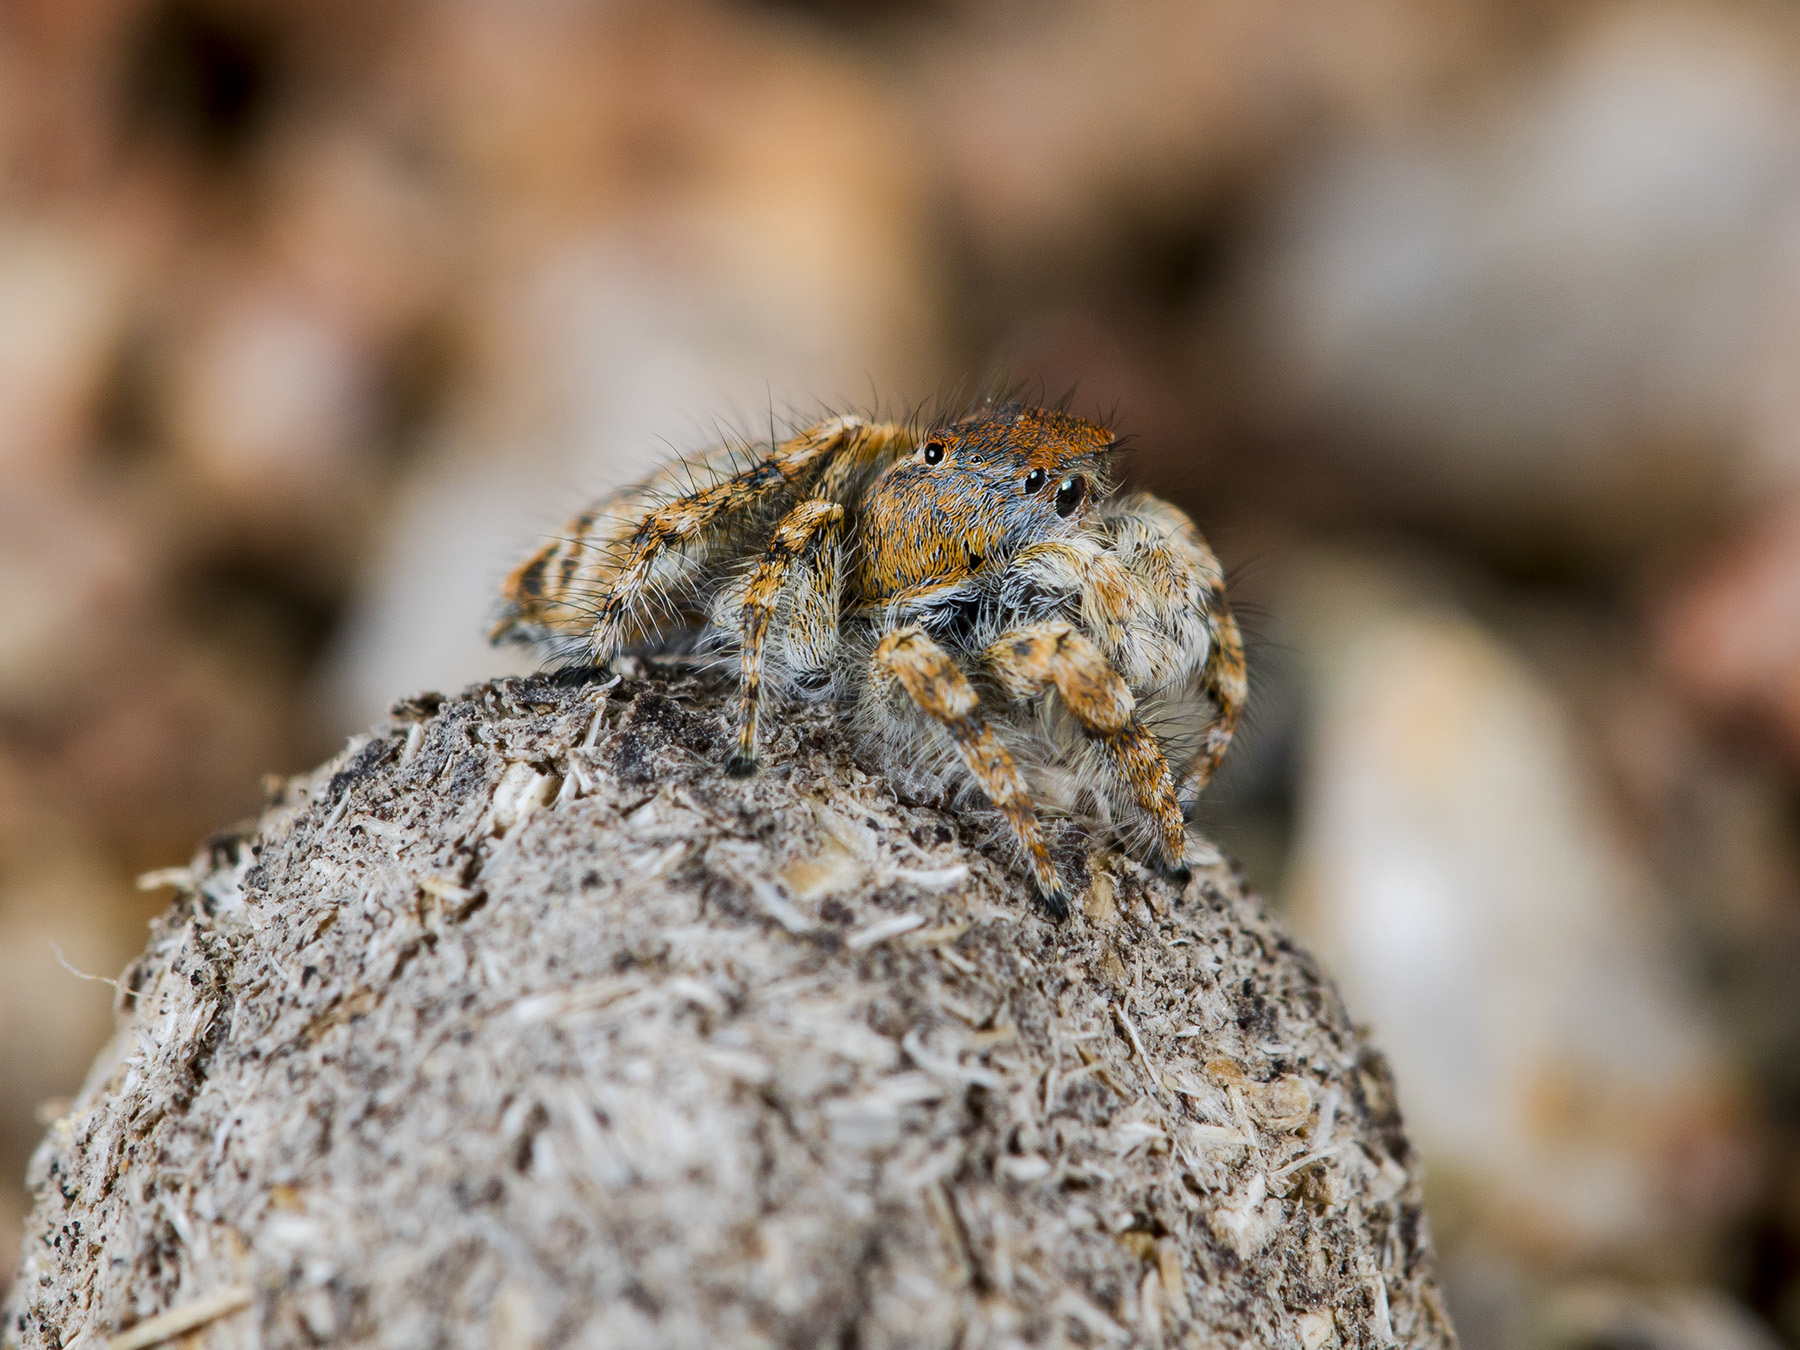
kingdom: Animalia
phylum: Arthropoda
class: Arachnida
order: Araneae
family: Salticidae
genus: Yllenus
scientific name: Yllenus charynensis
